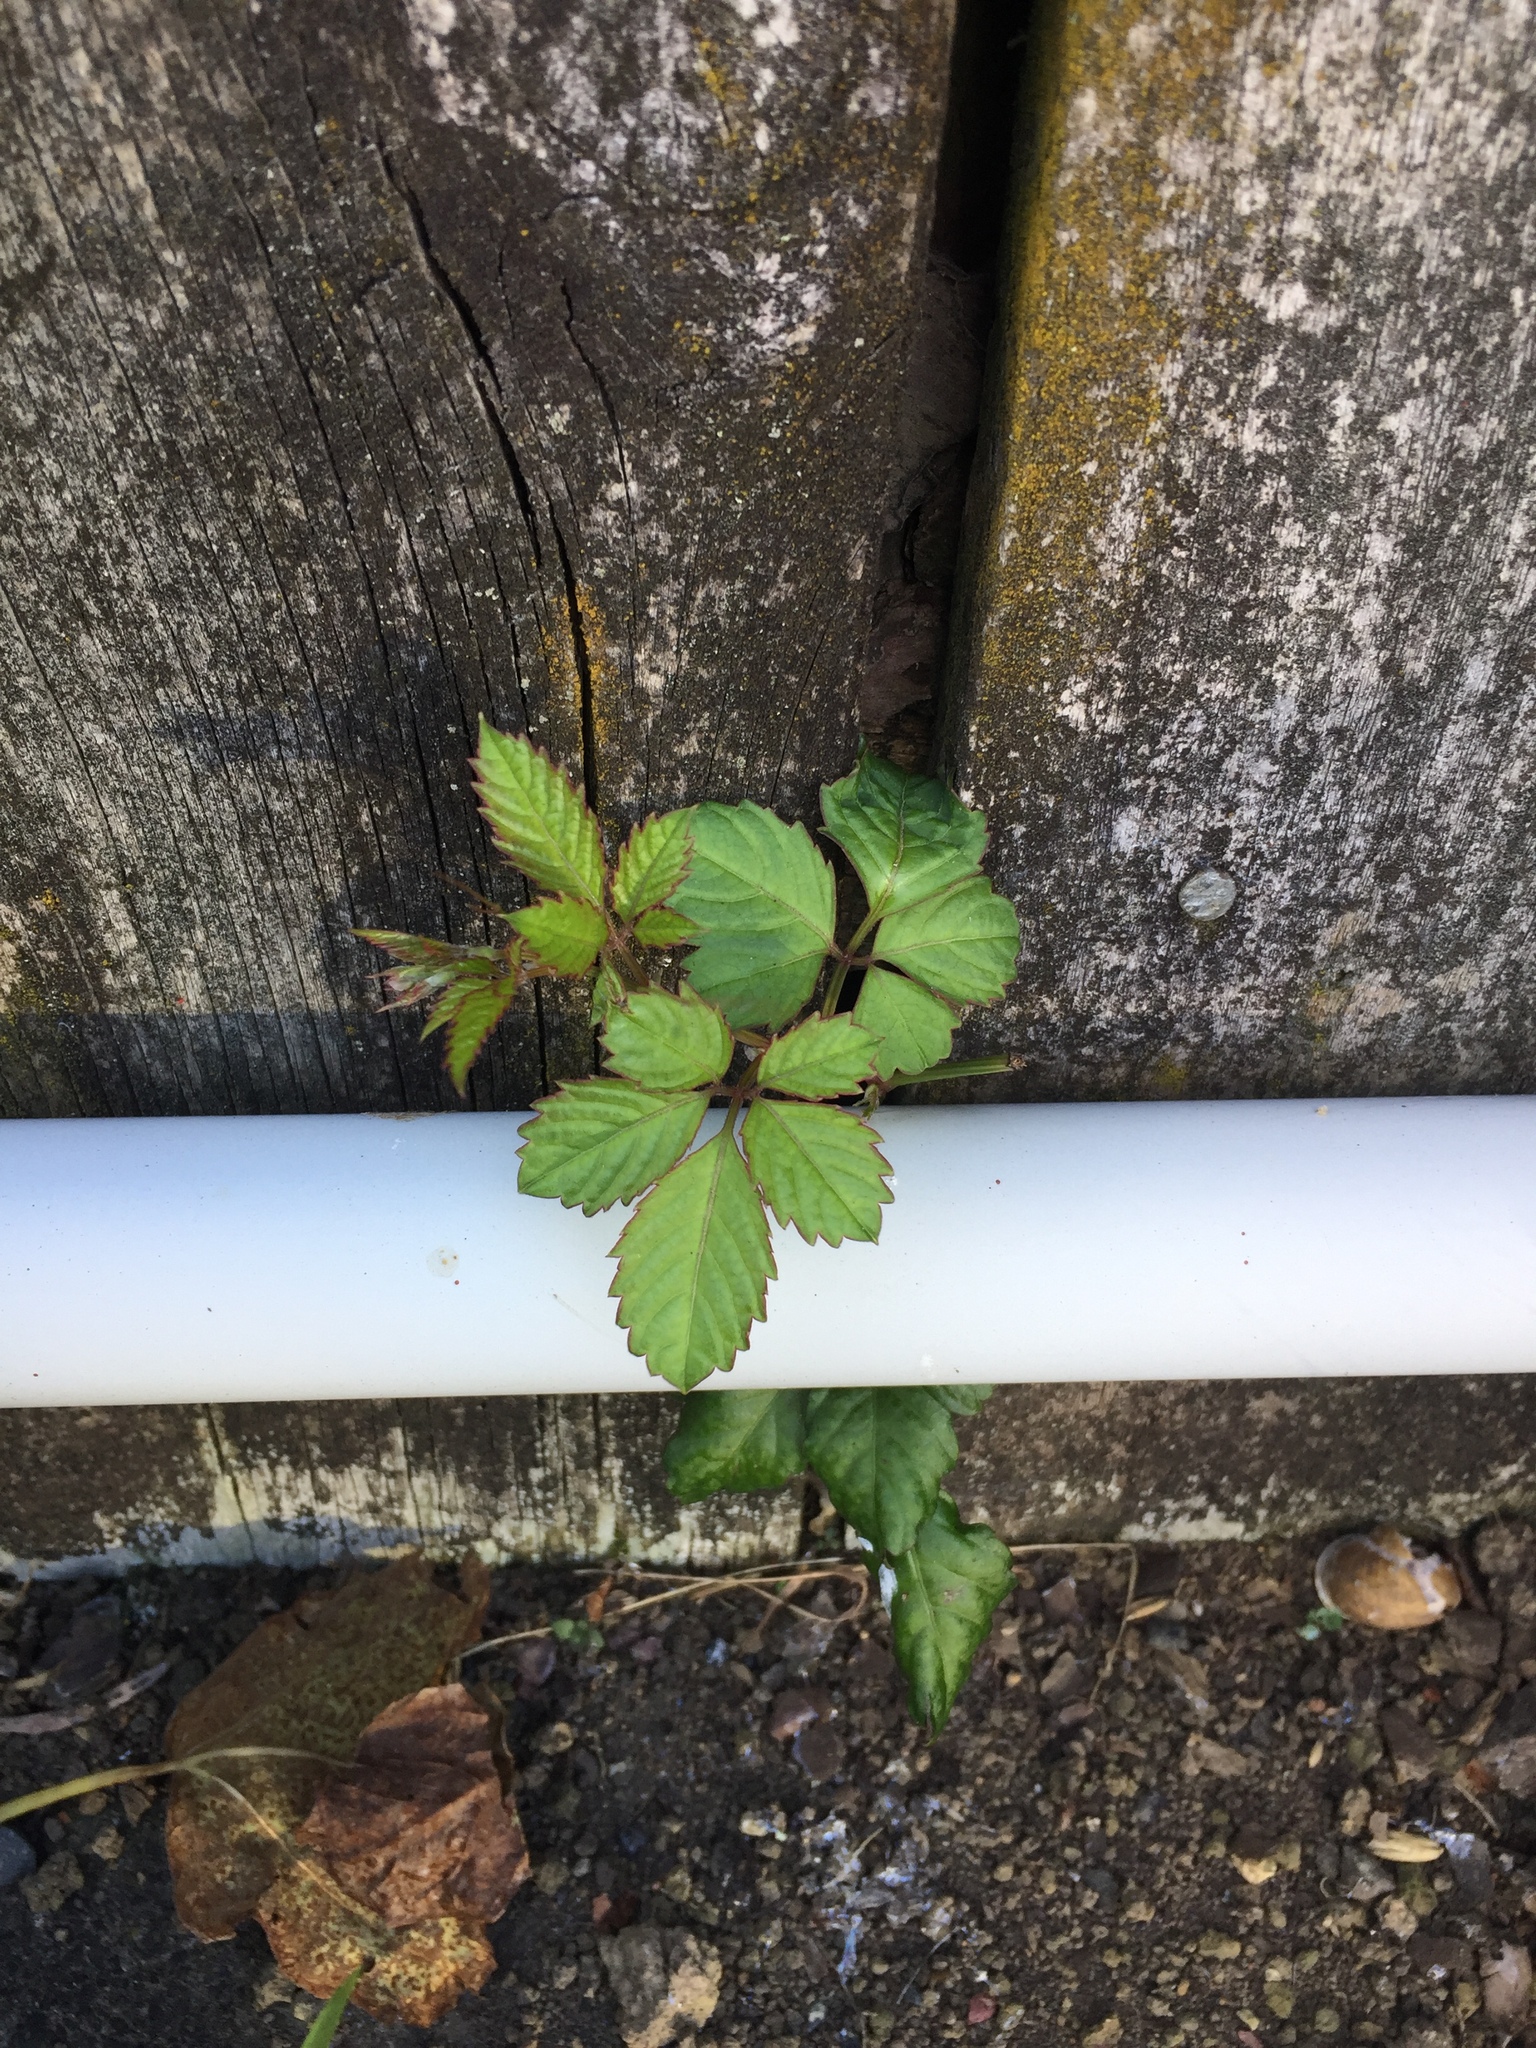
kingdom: Plantae
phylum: Tracheophyta
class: Magnoliopsida
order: Vitales
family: Vitaceae
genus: Causonis
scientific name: Causonis japonica
